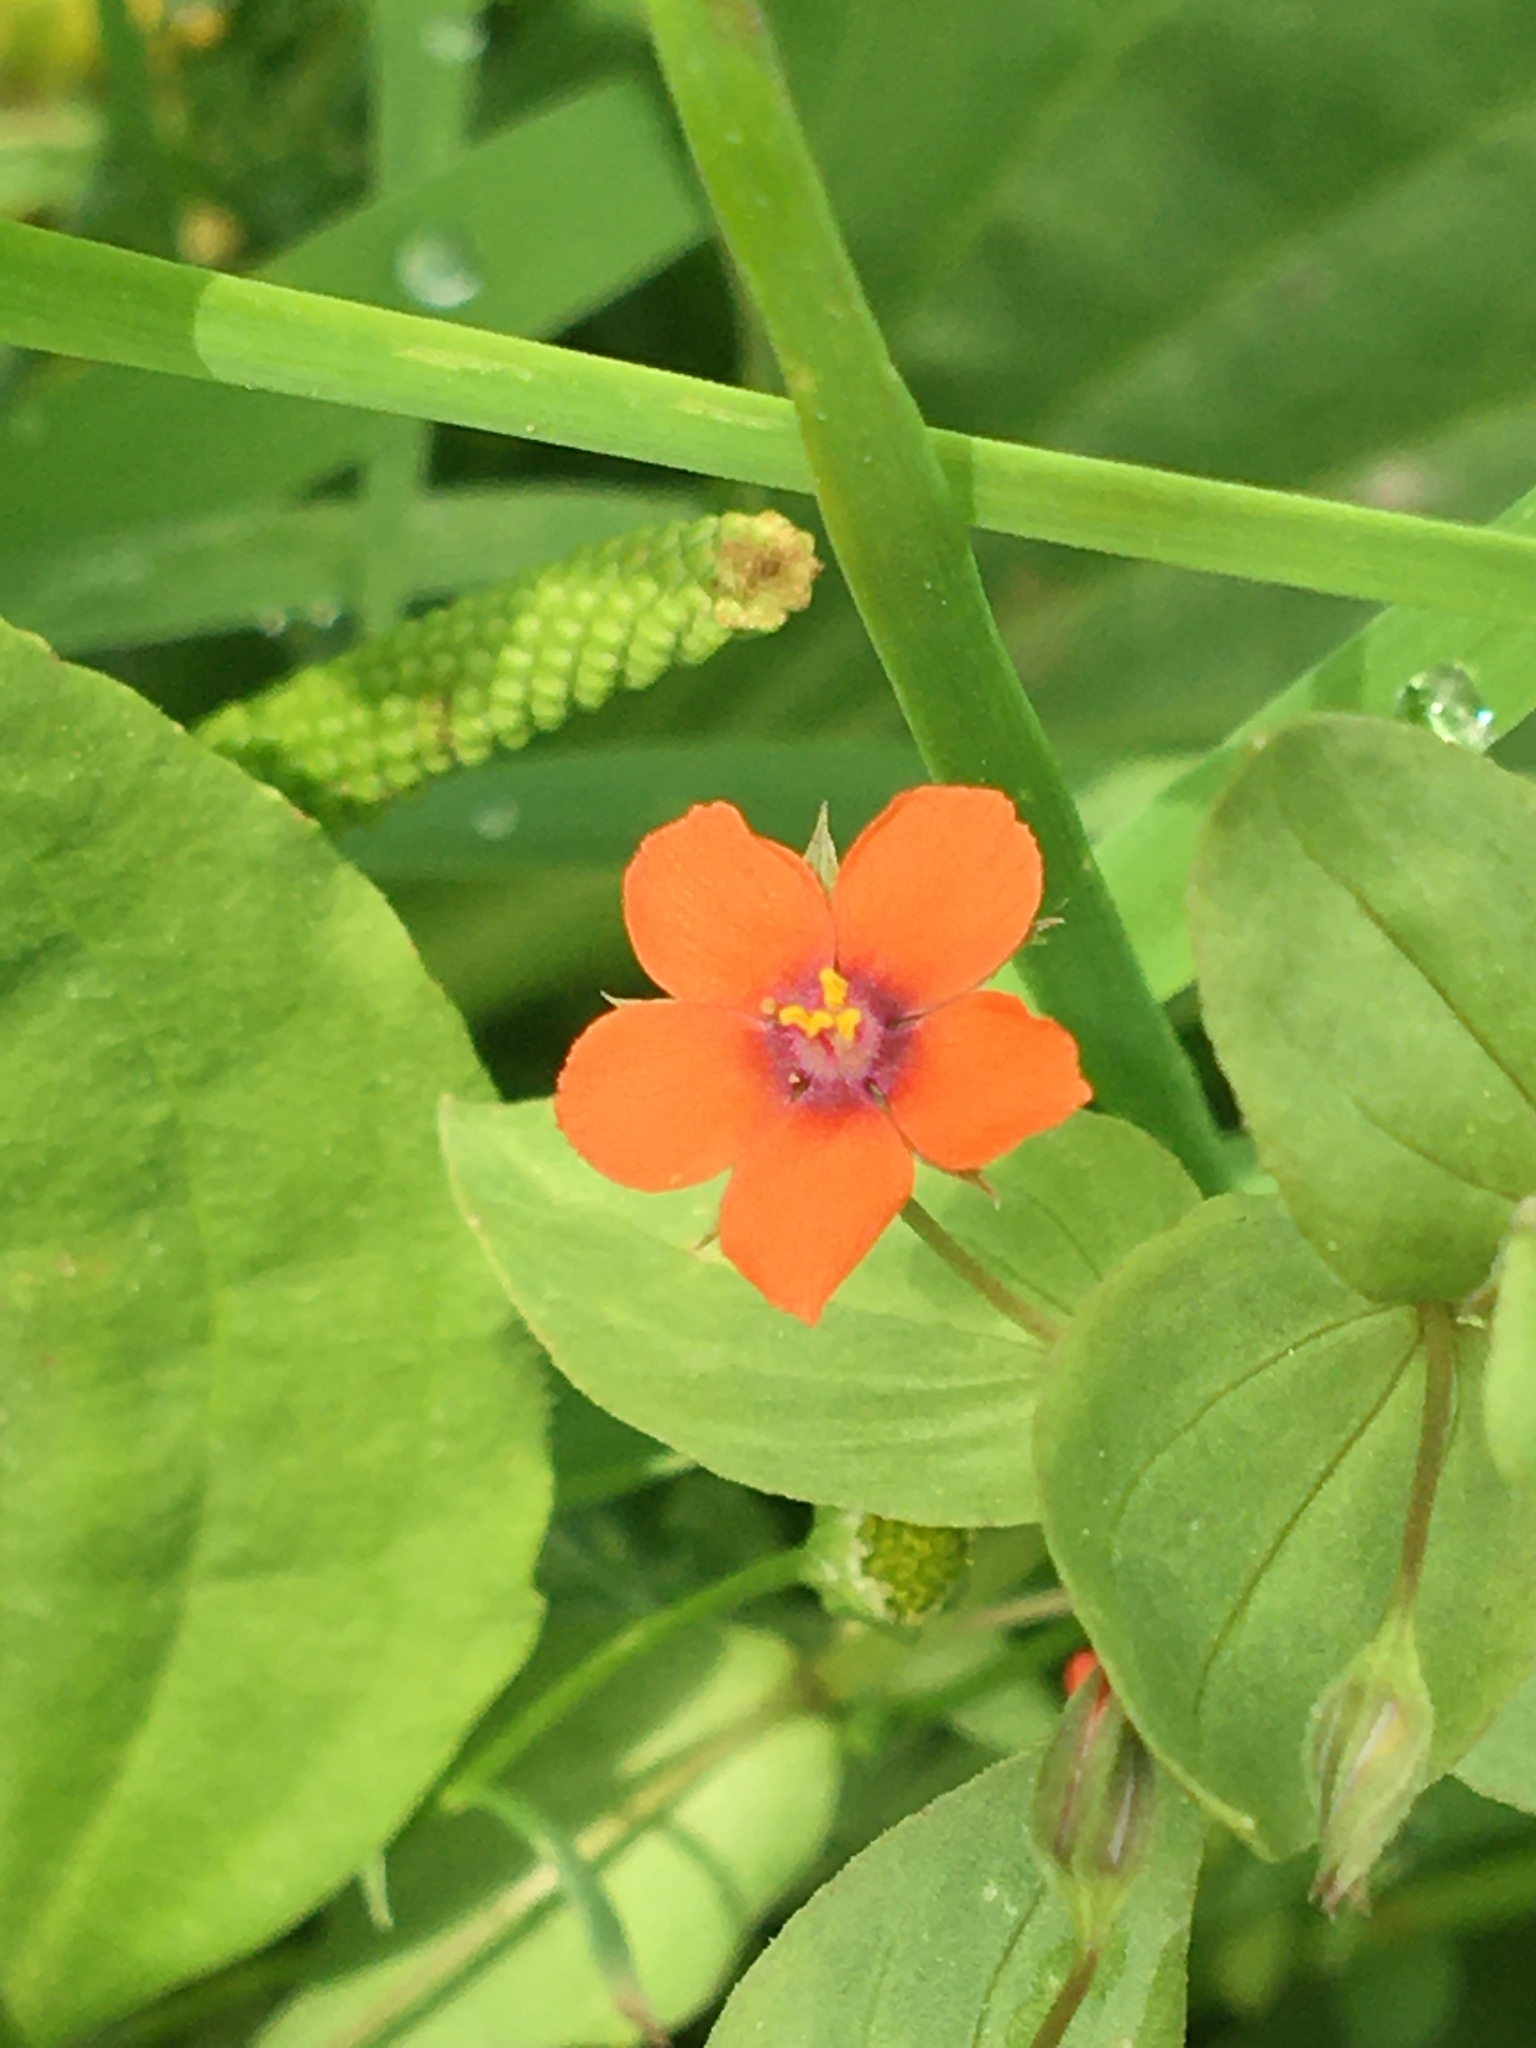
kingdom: Plantae
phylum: Tracheophyta
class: Magnoliopsida
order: Ericales
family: Primulaceae
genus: Lysimachia
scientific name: Lysimachia arvensis
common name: Scarlet pimpernel
